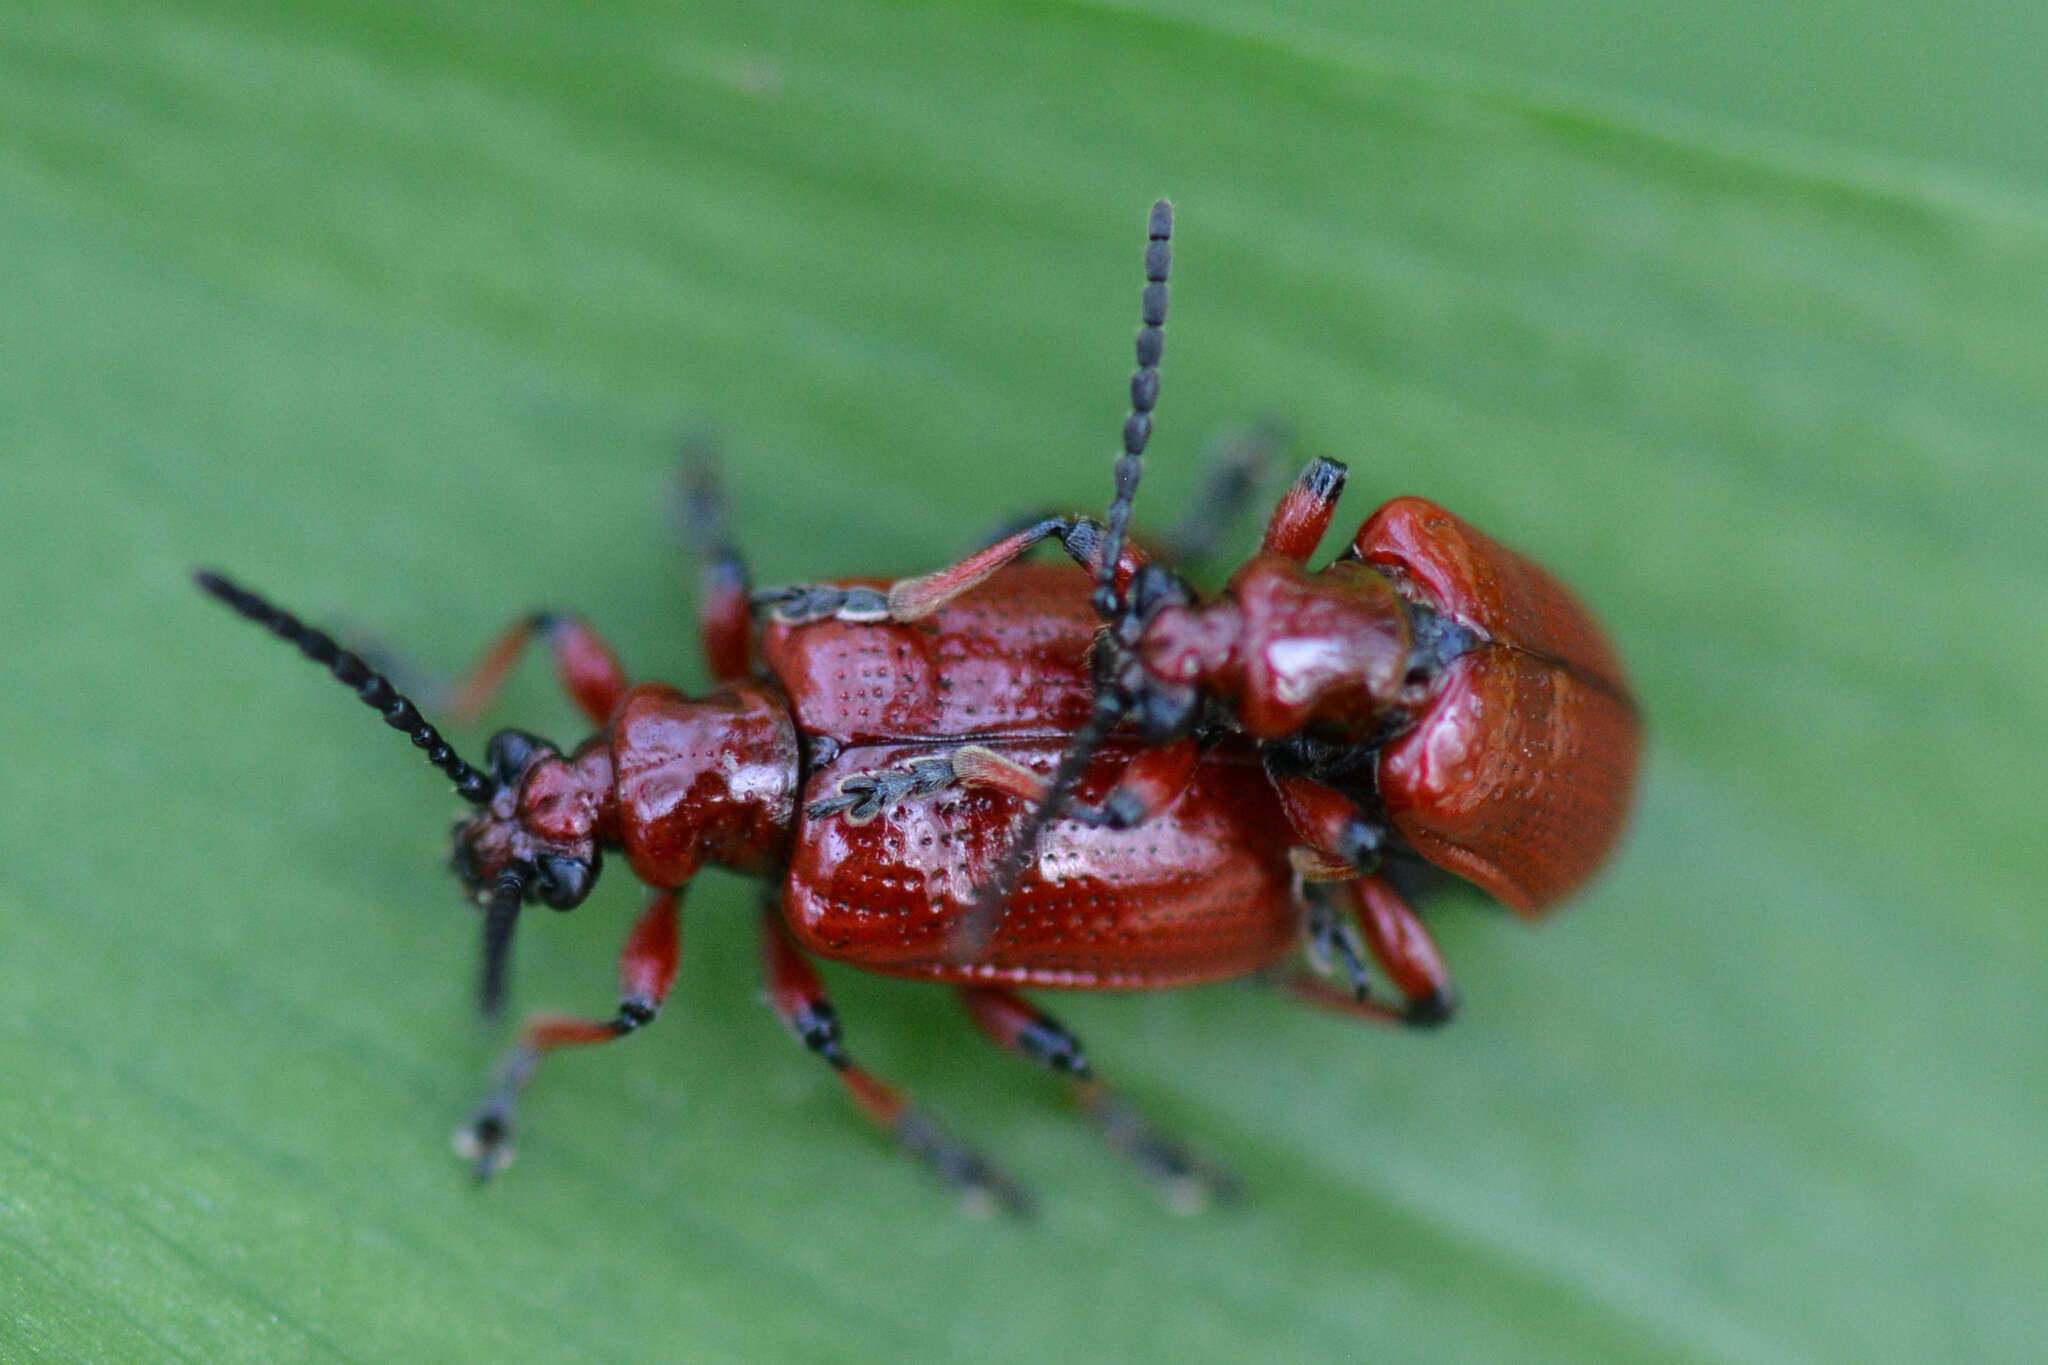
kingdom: Animalia
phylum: Arthropoda
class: Insecta
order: Coleoptera
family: Chrysomelidae
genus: Lilioceris
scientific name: Lilioceris merdigera
